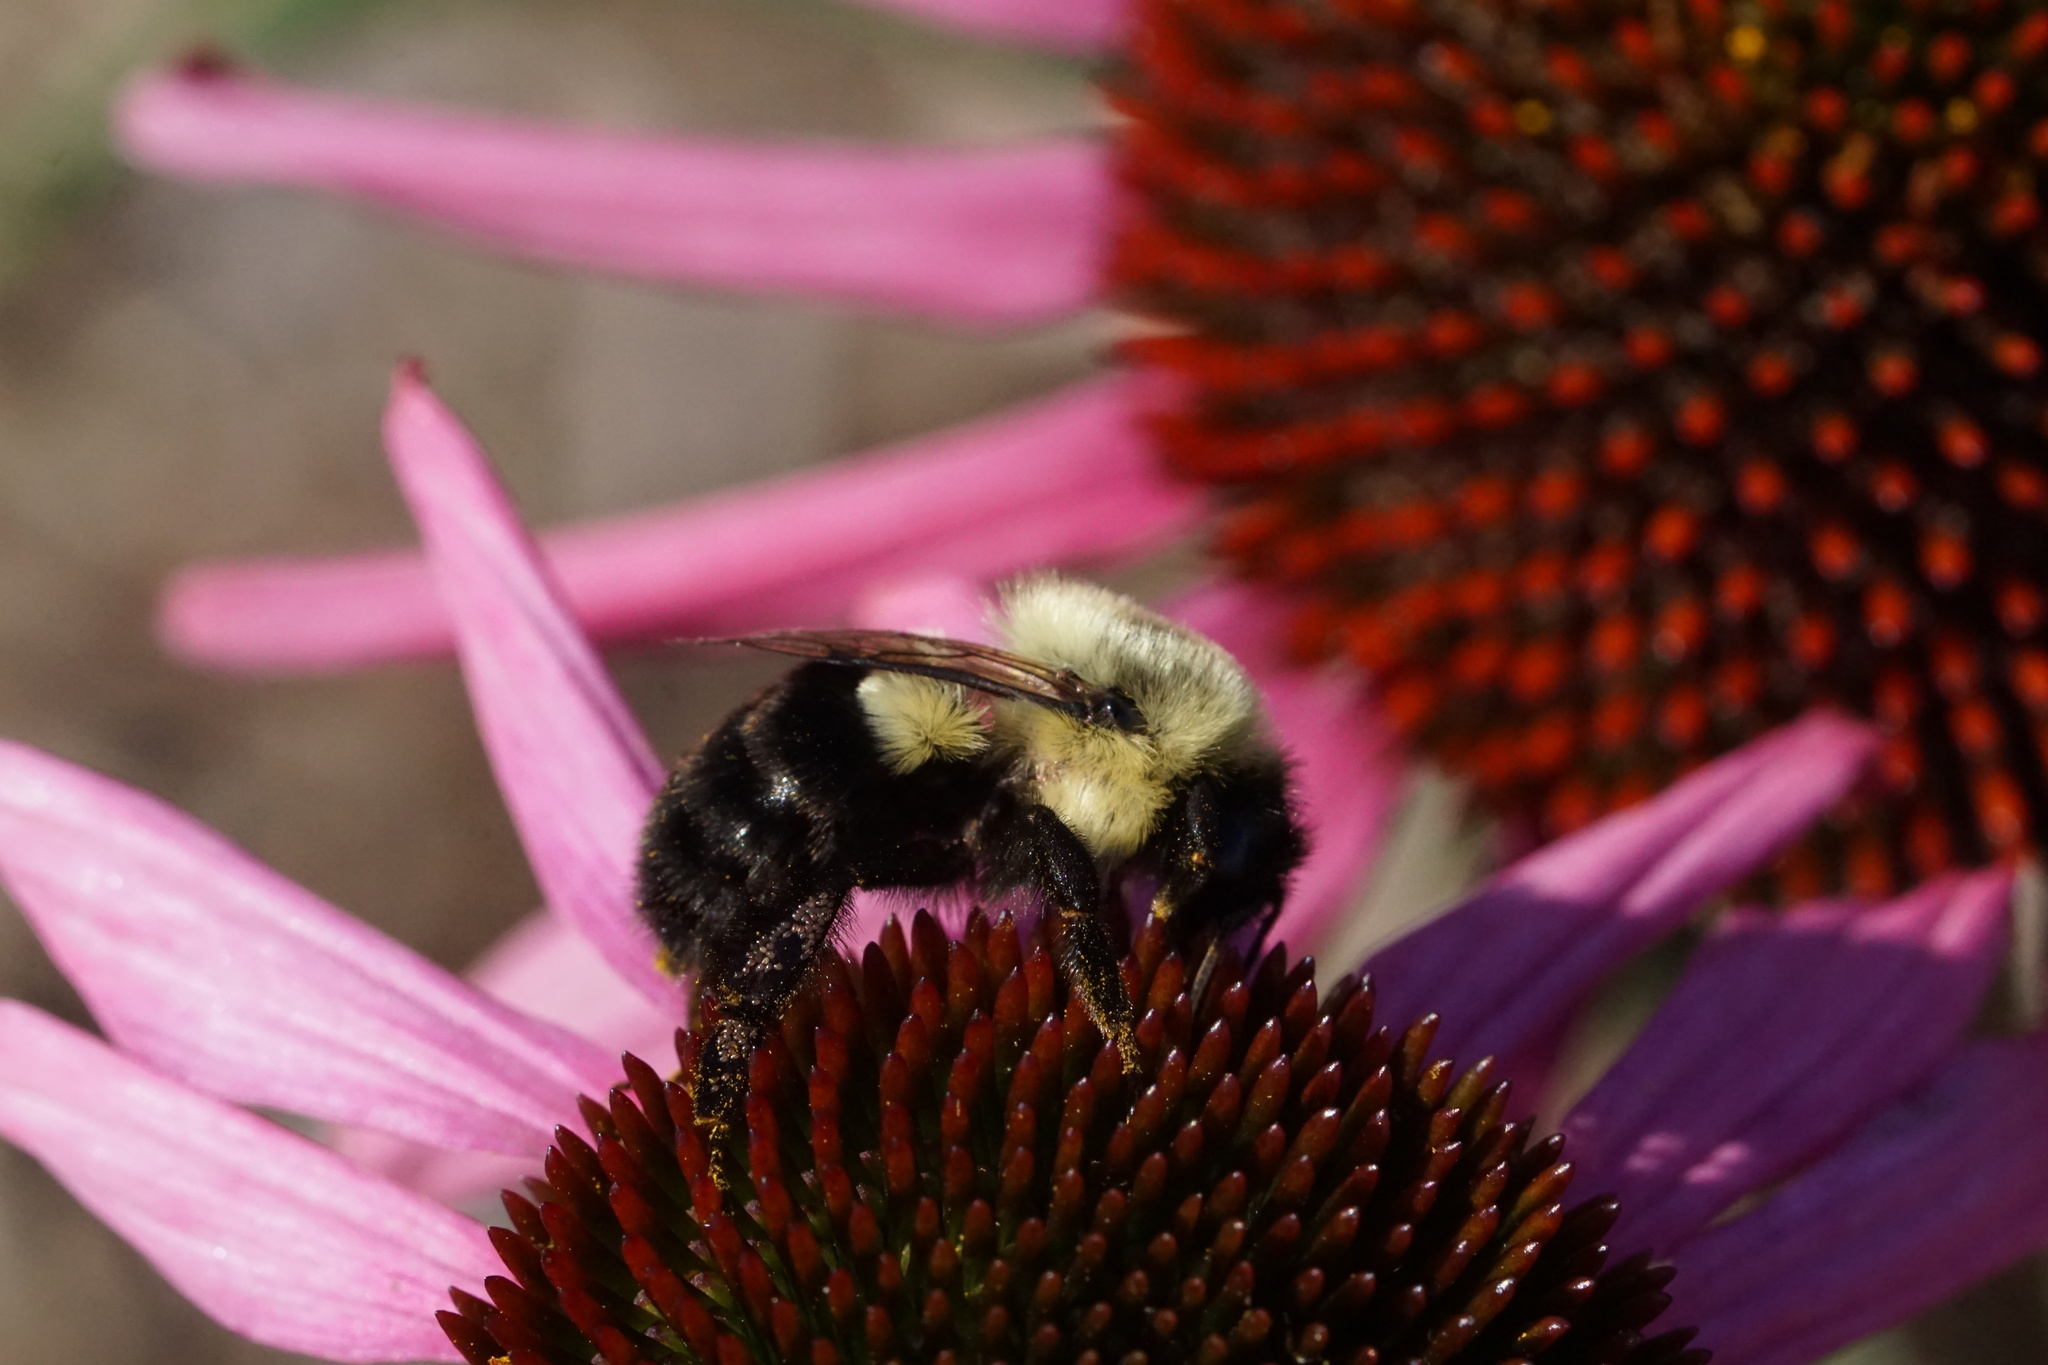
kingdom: Animalia
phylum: Arthropoda
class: Insecta
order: Hymenoptera
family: Apidae
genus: Bombus
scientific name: Bombus impatiens
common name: Common eastern bumble bee
